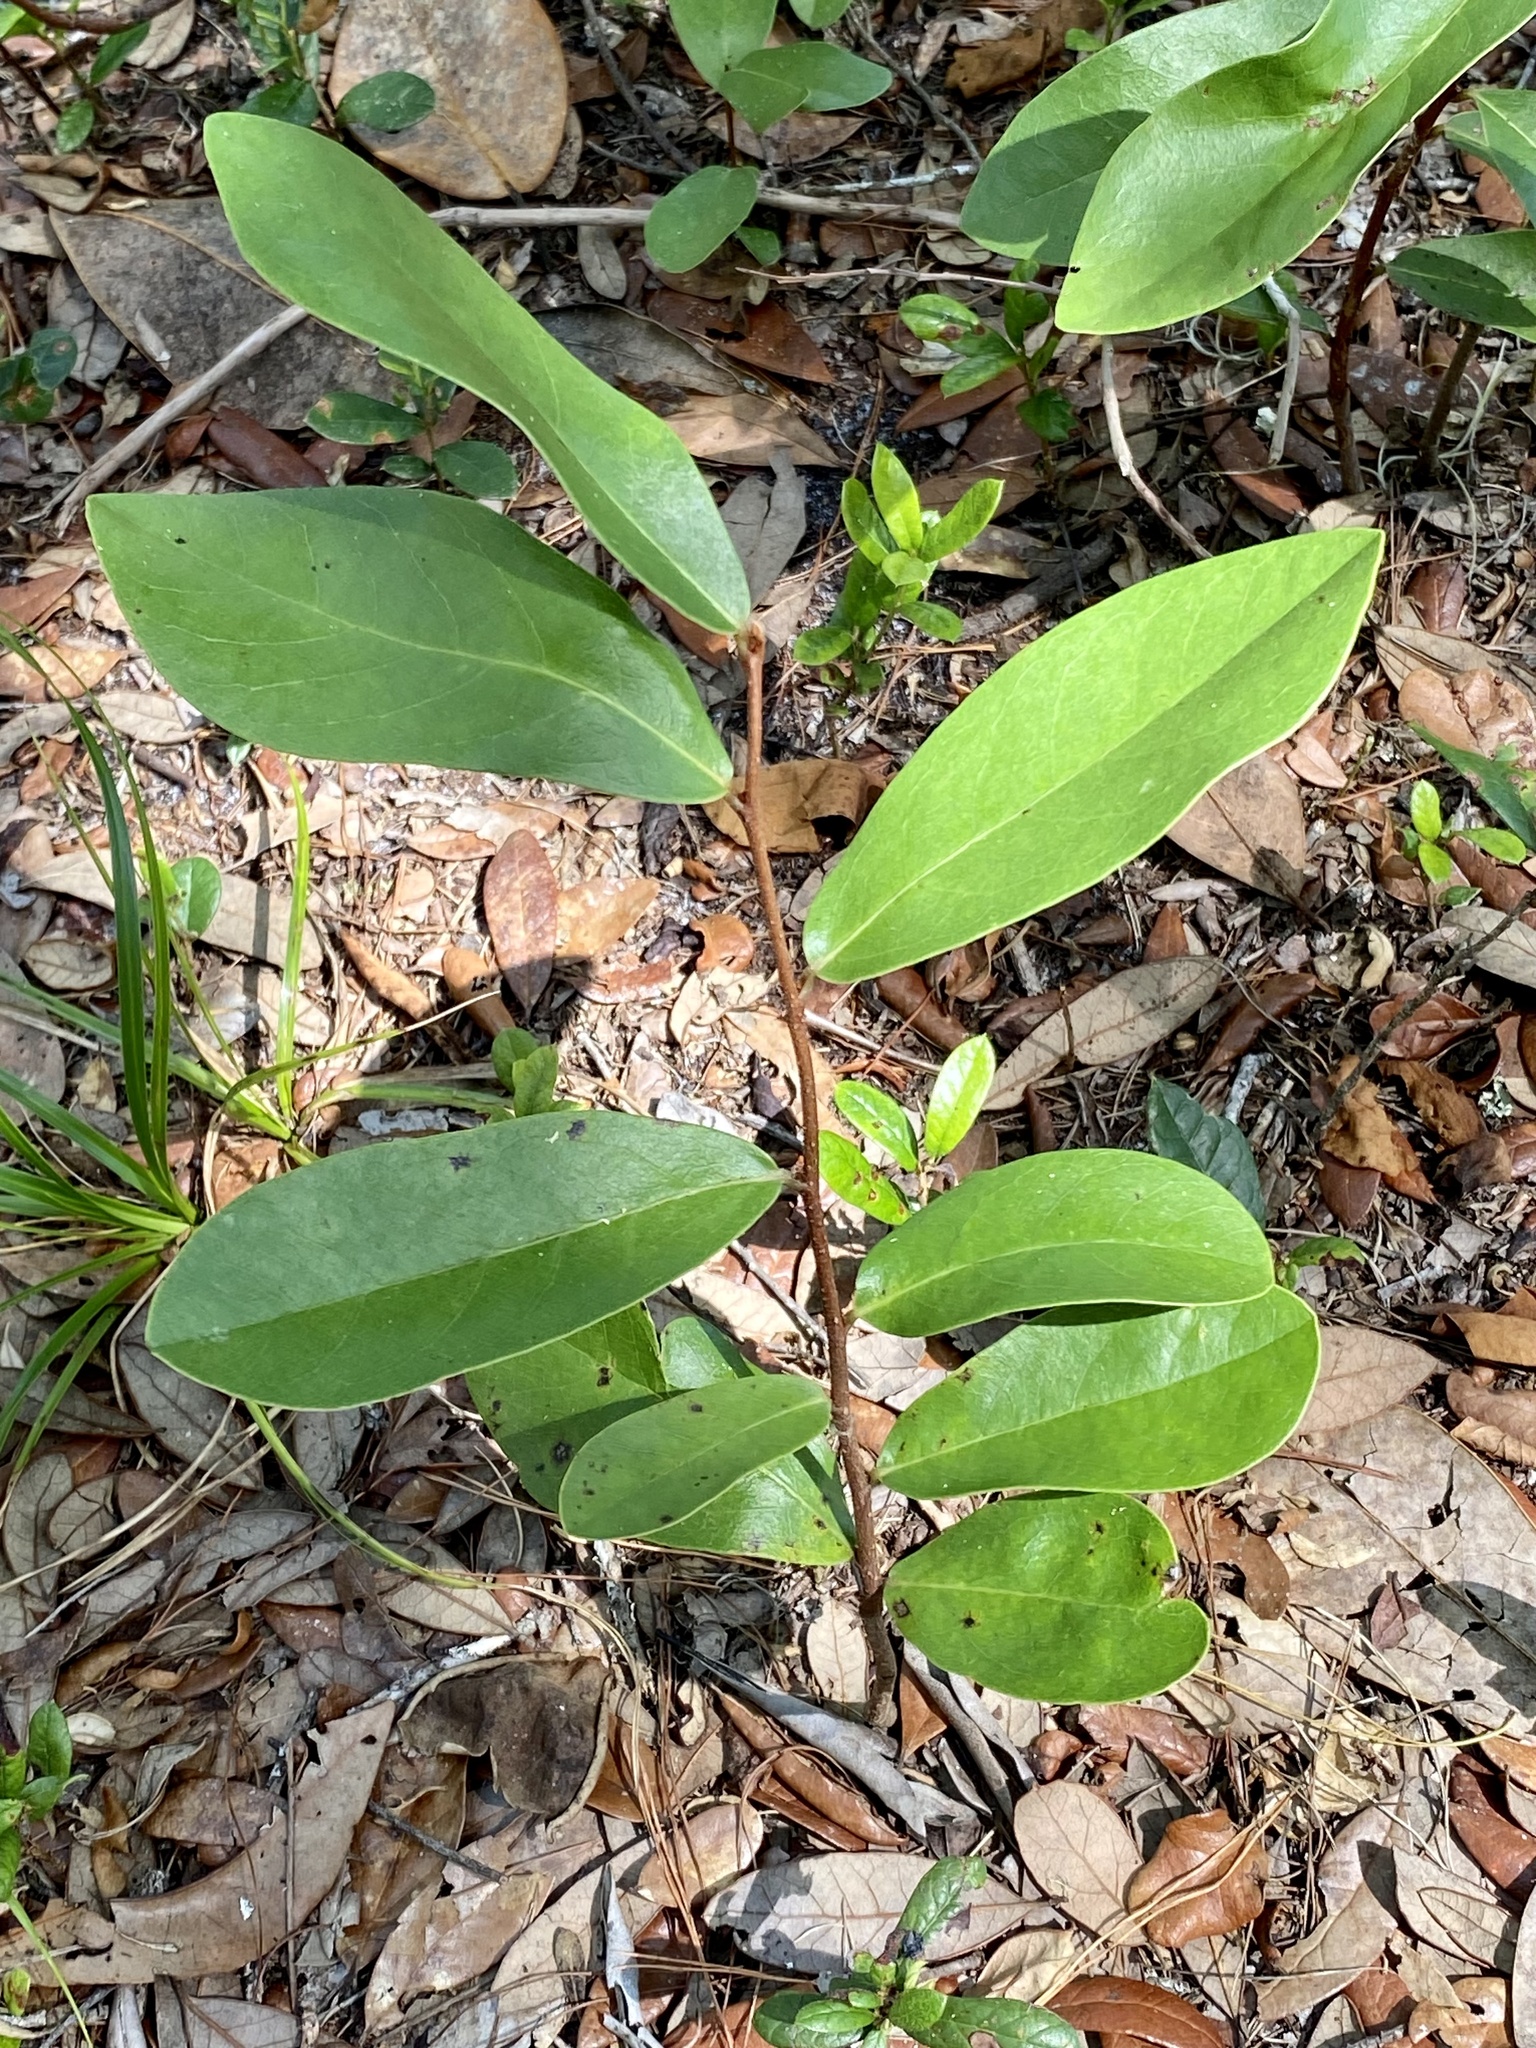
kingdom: Plantae
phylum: Tracheophyta
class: Magnoliopsida
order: Magnoliales
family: Annonaceae
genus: Asimina
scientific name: Asimina obovata
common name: Flag pawpaw
